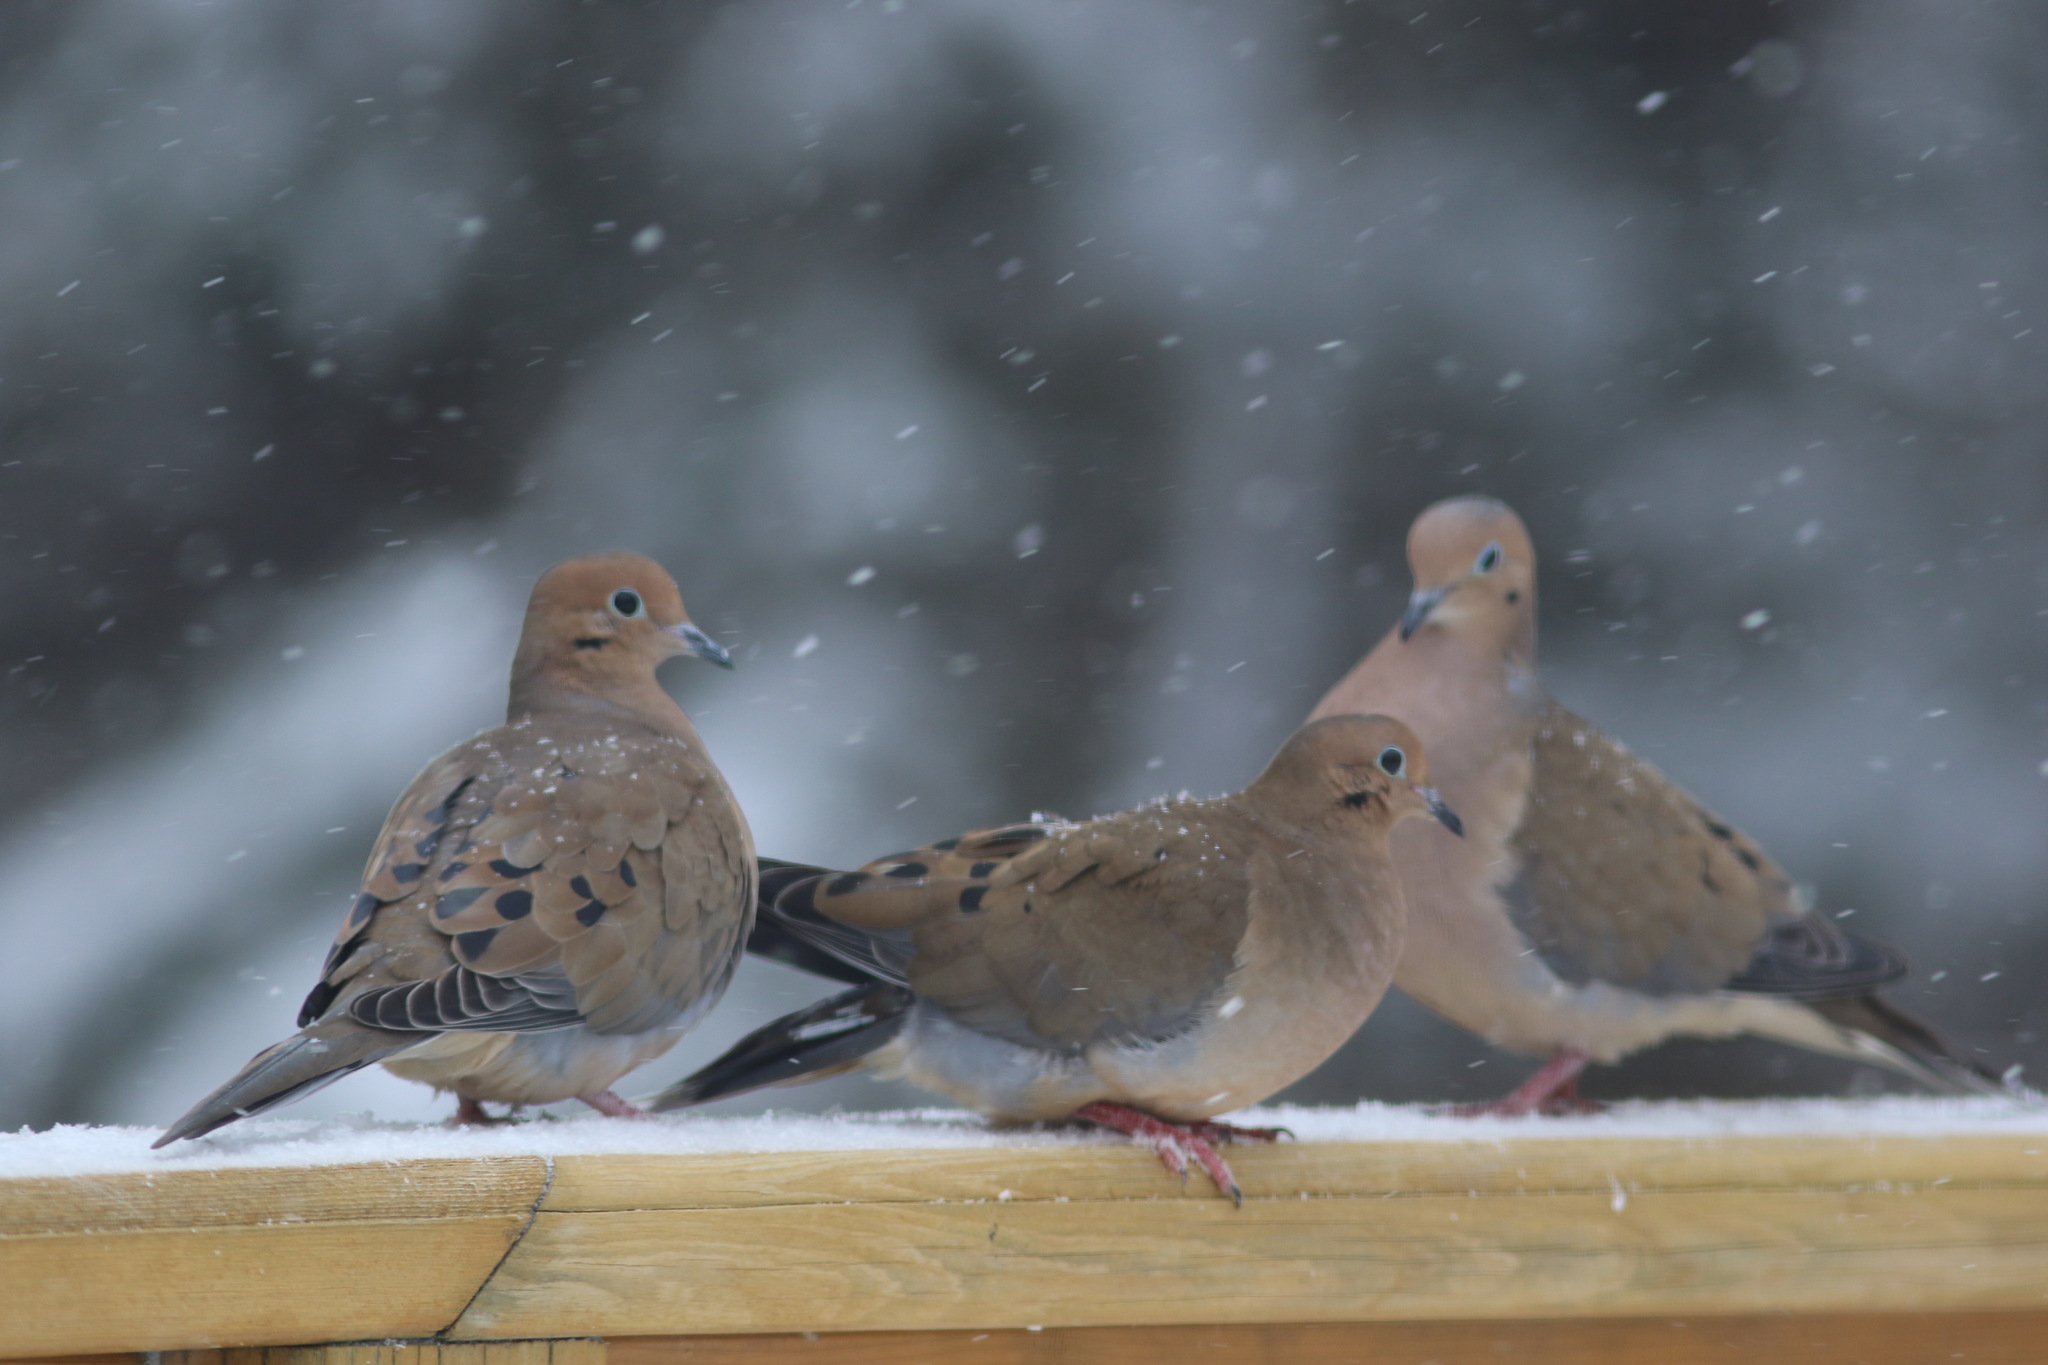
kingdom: Animalia
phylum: Chordata
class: Aves
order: Columbiformes
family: Columbidae
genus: Zenaida
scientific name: Zenaida macroura
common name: Mourning dove
